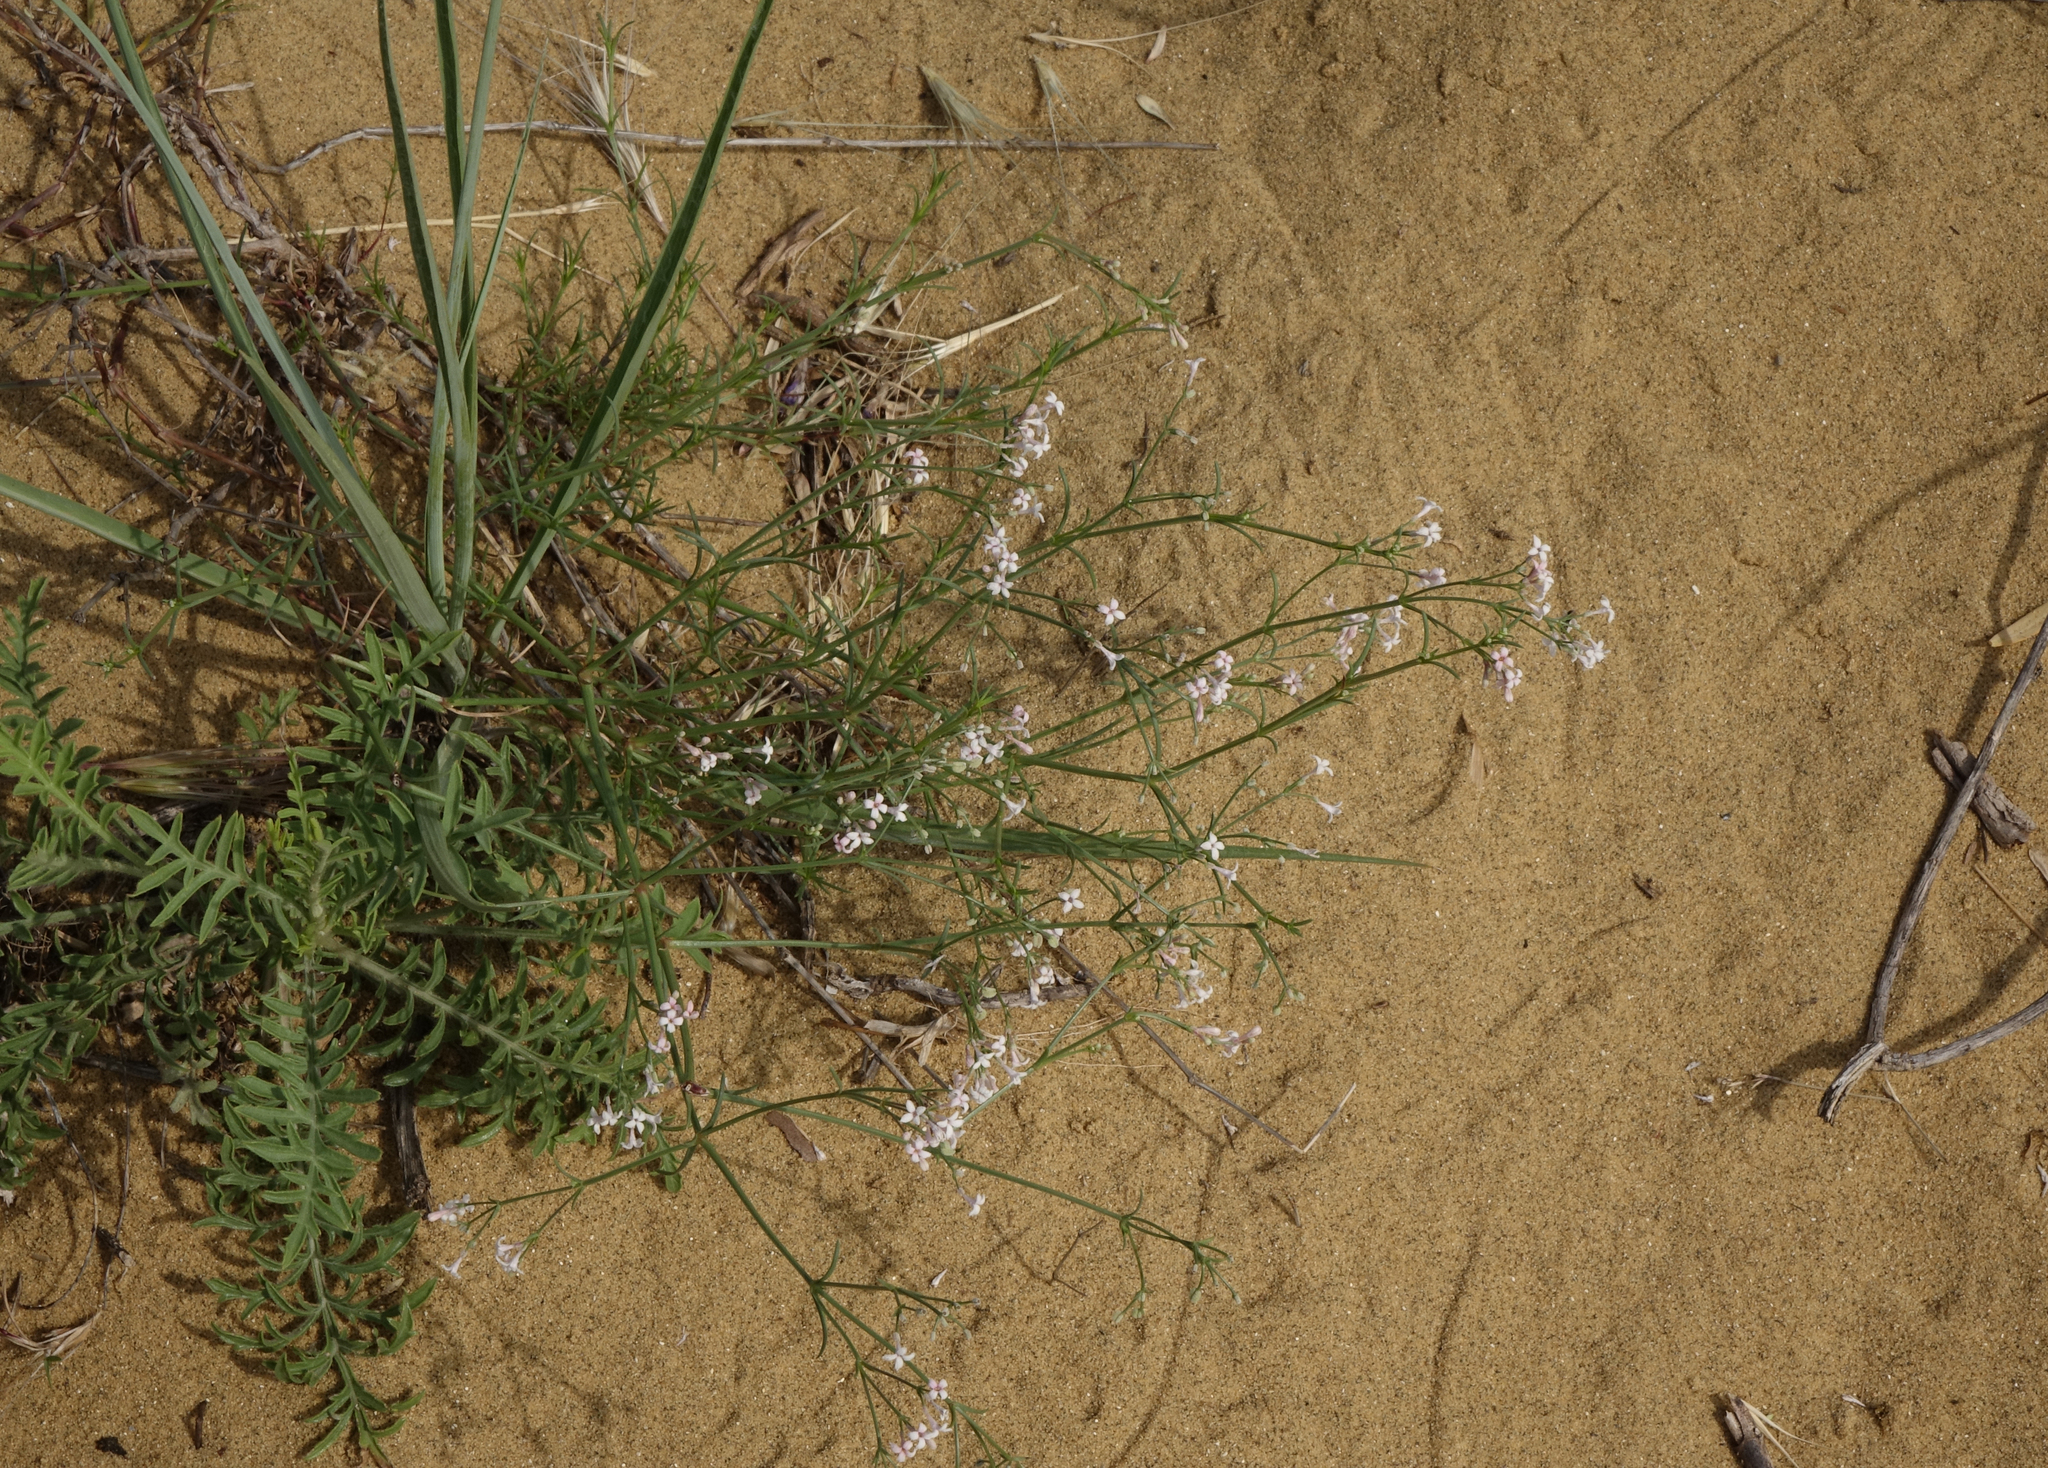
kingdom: Plantae
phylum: Tracheophyta
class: Magnoliopsida
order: Gentianales
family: Rubiaceae
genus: Cynanchica
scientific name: Cynanchica diminuta
